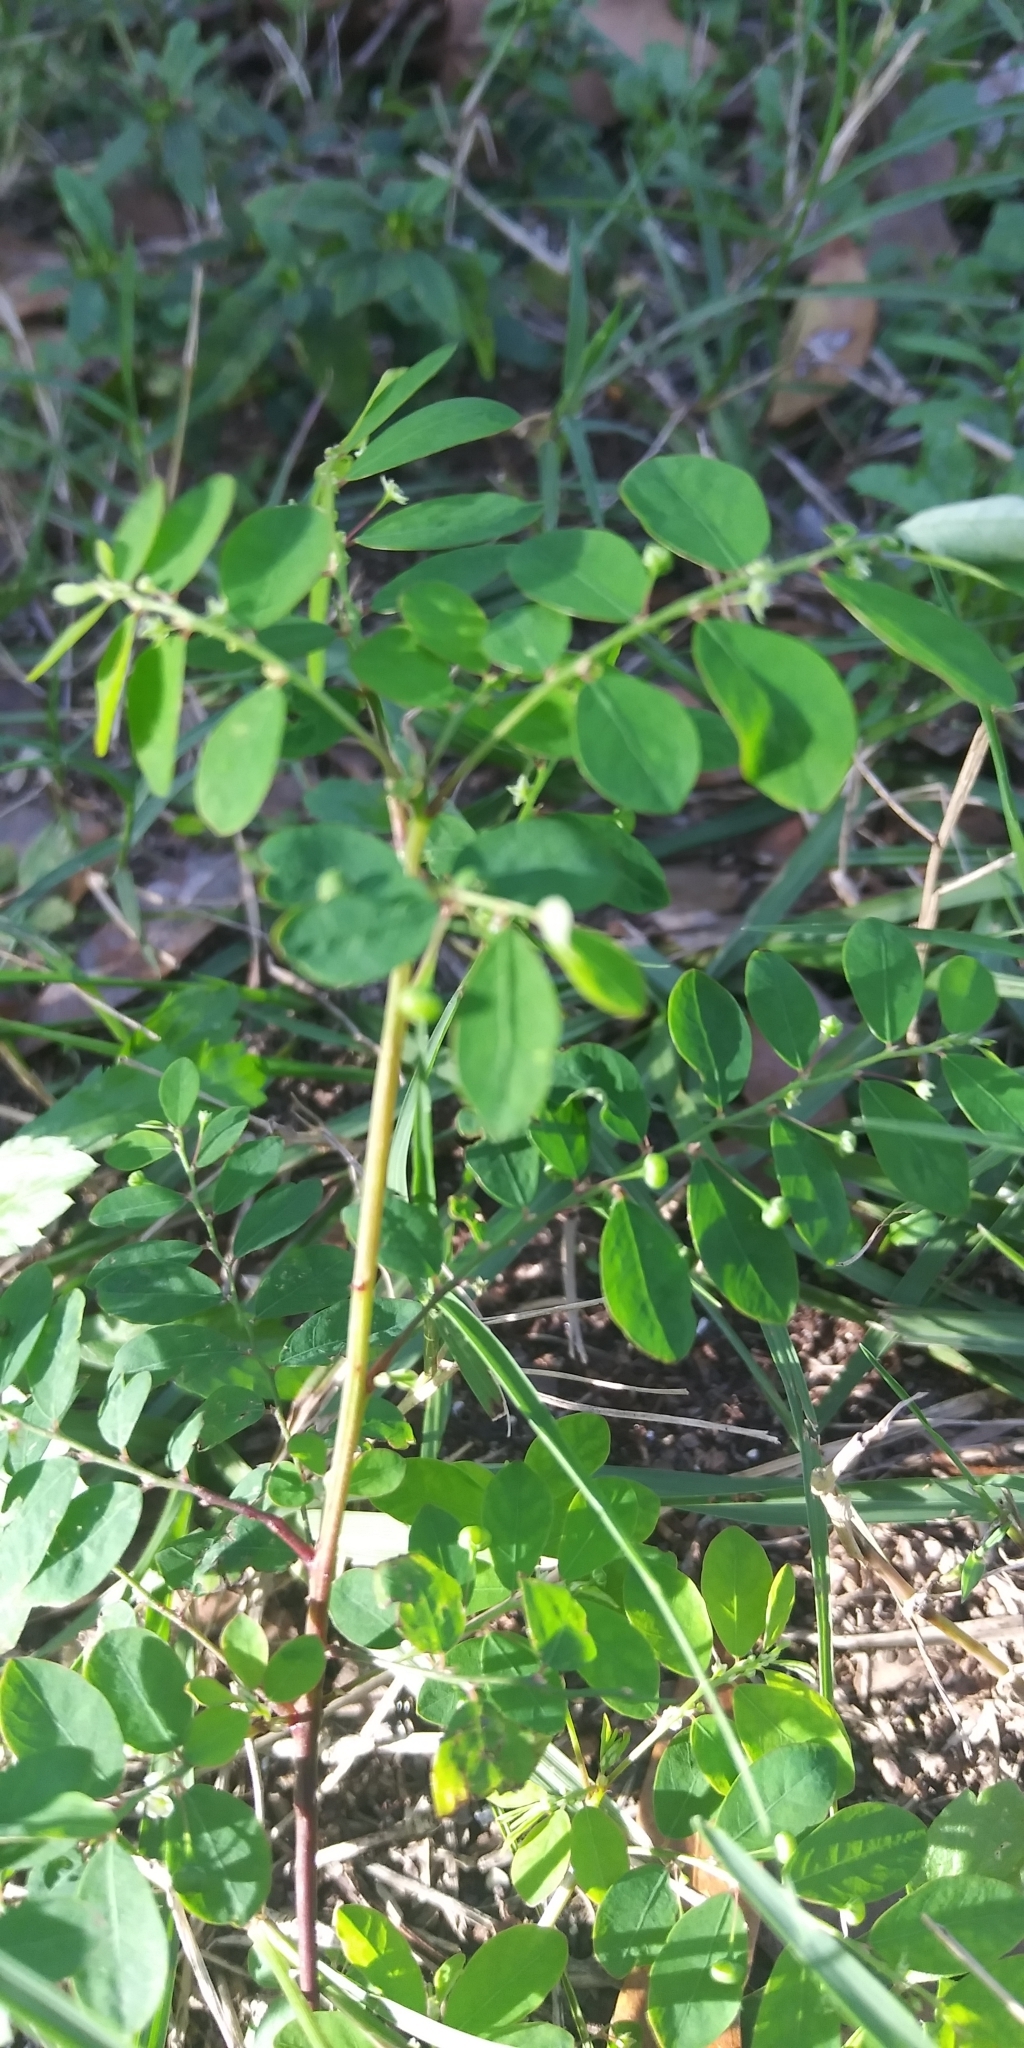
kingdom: Plantae
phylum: Tracheophyta
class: Magnoliopsida
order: Malpighiales
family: Phyllanthaceae
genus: Phyllanthus
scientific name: Phyllanthus tenellus
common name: Mascarene island leaf-flower
